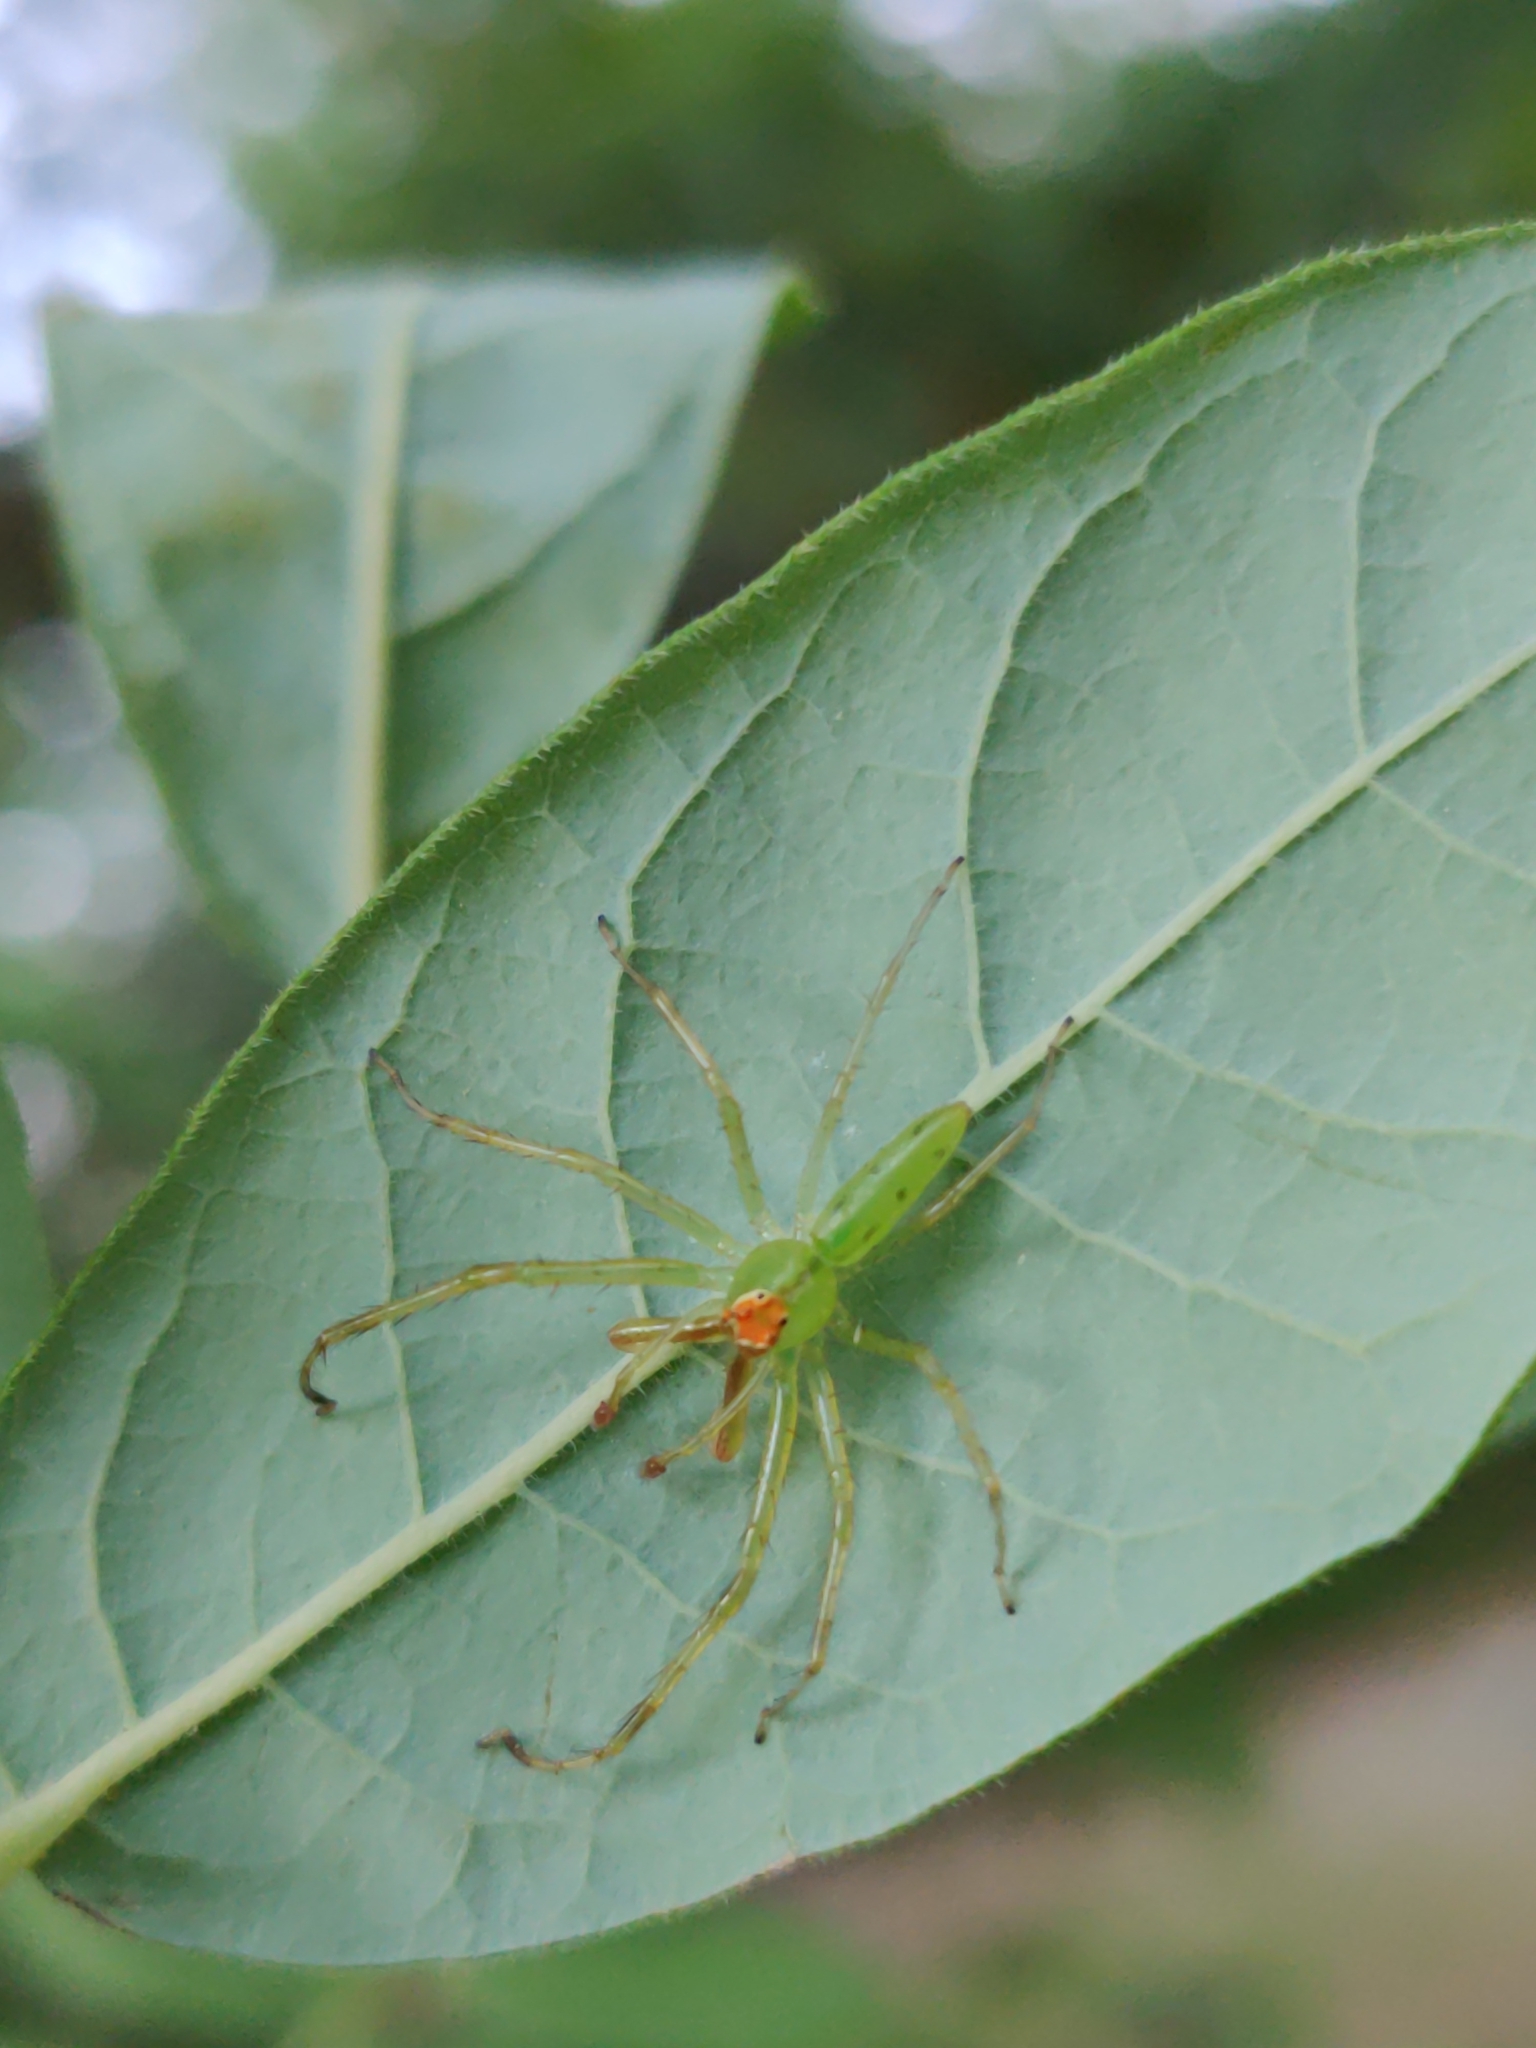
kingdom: Animalia
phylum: Arthropoda
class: Arachnida
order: Araneae
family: Salticidae
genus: Lyssomanes
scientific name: Lyssomanes viridis
